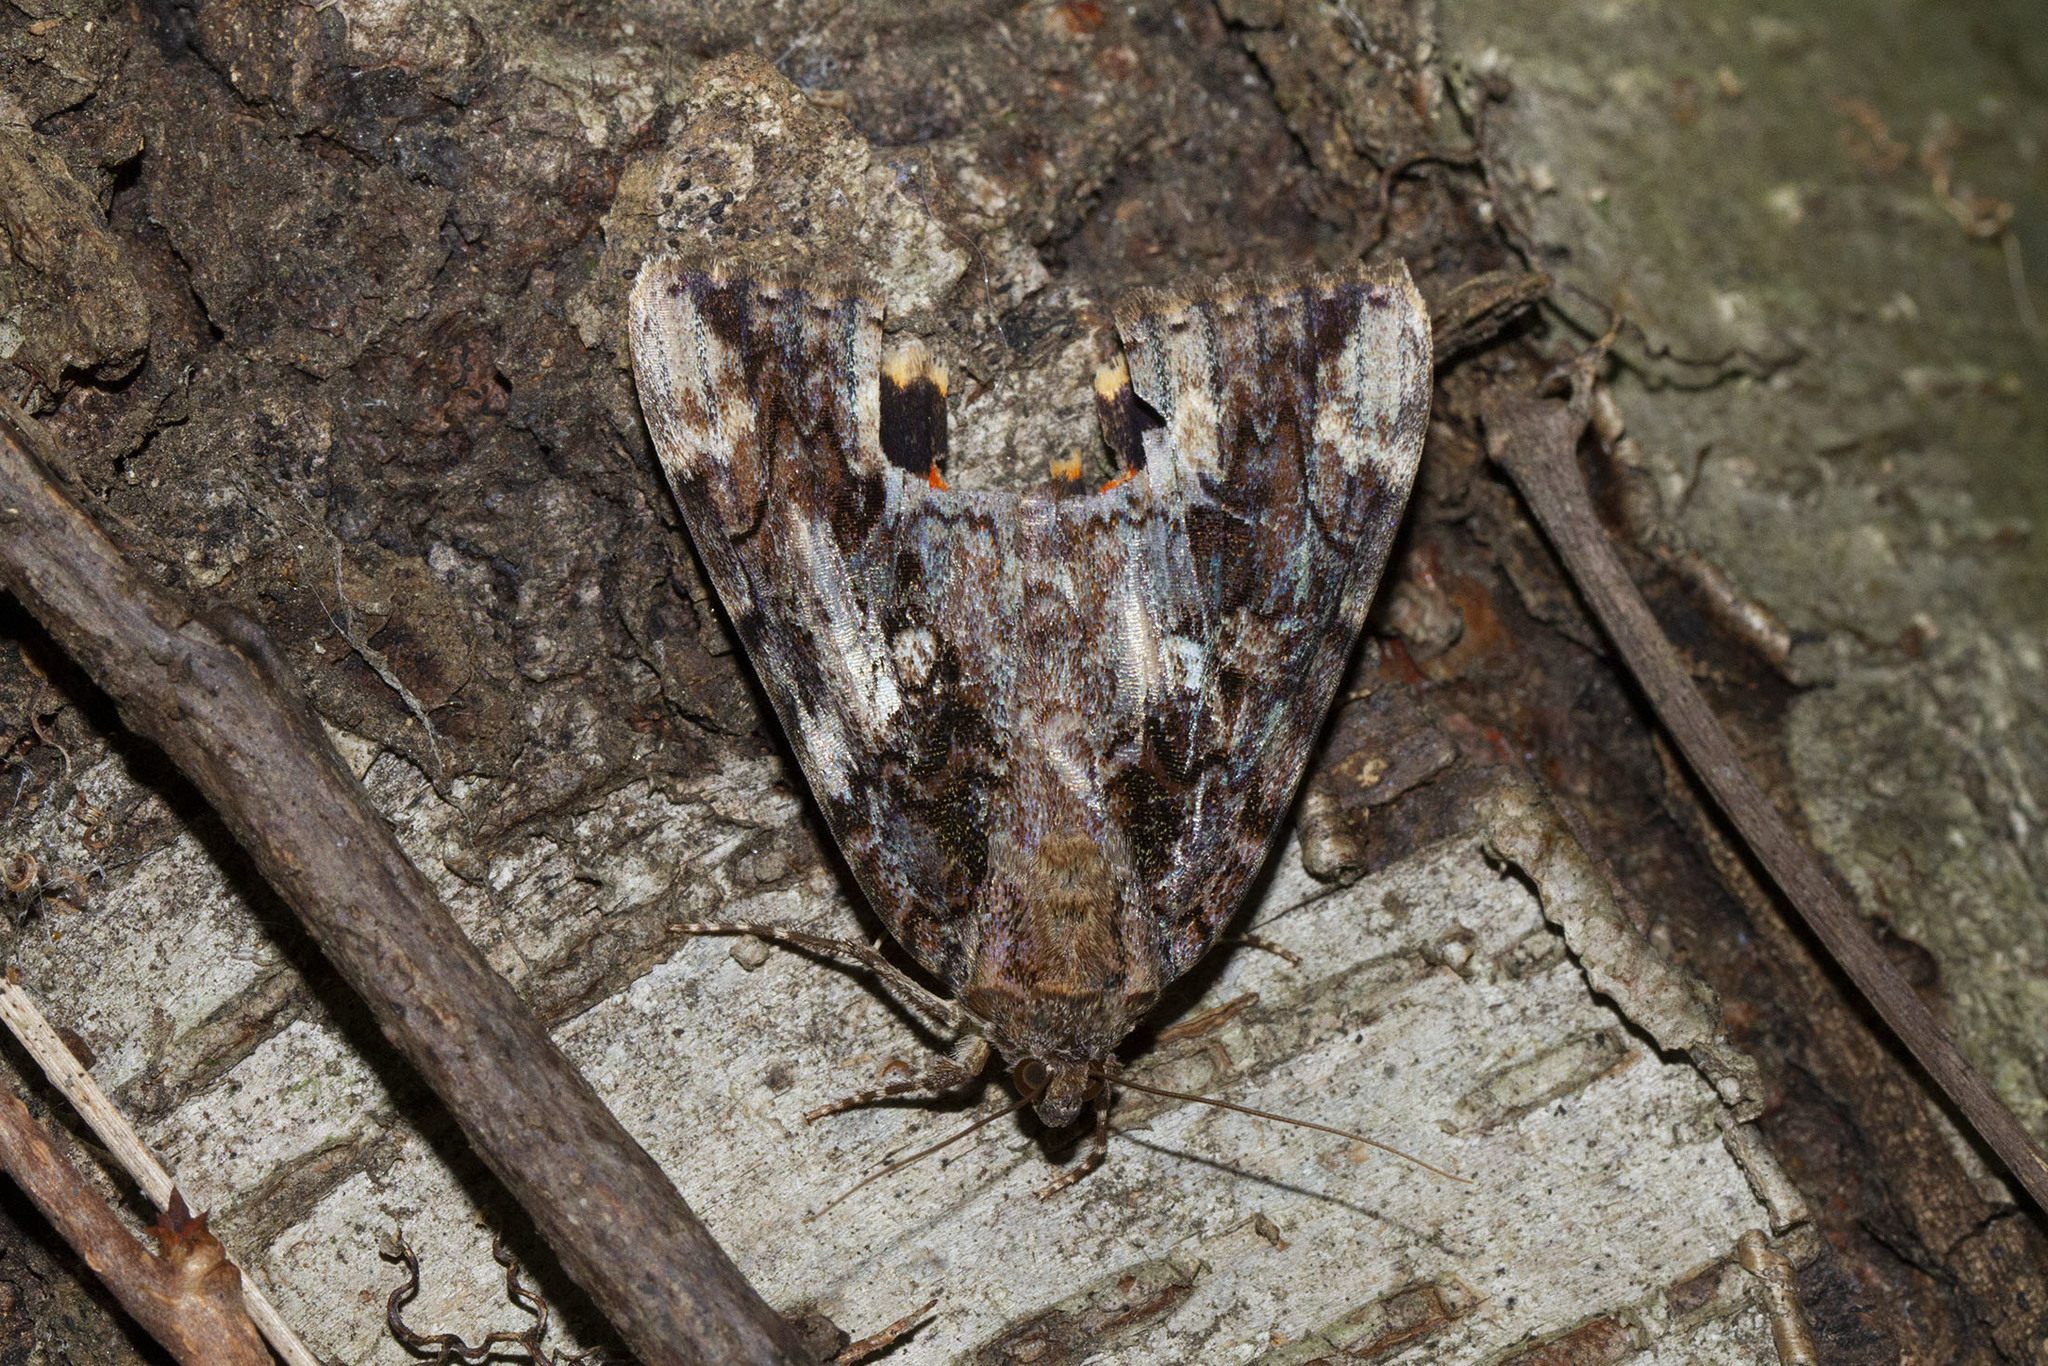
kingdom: Animalia
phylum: Arthropoda
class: Insecta
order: Lepidoptera
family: Erebidae
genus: Catocala
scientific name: Catocala innubens
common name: Betrothed underwing
